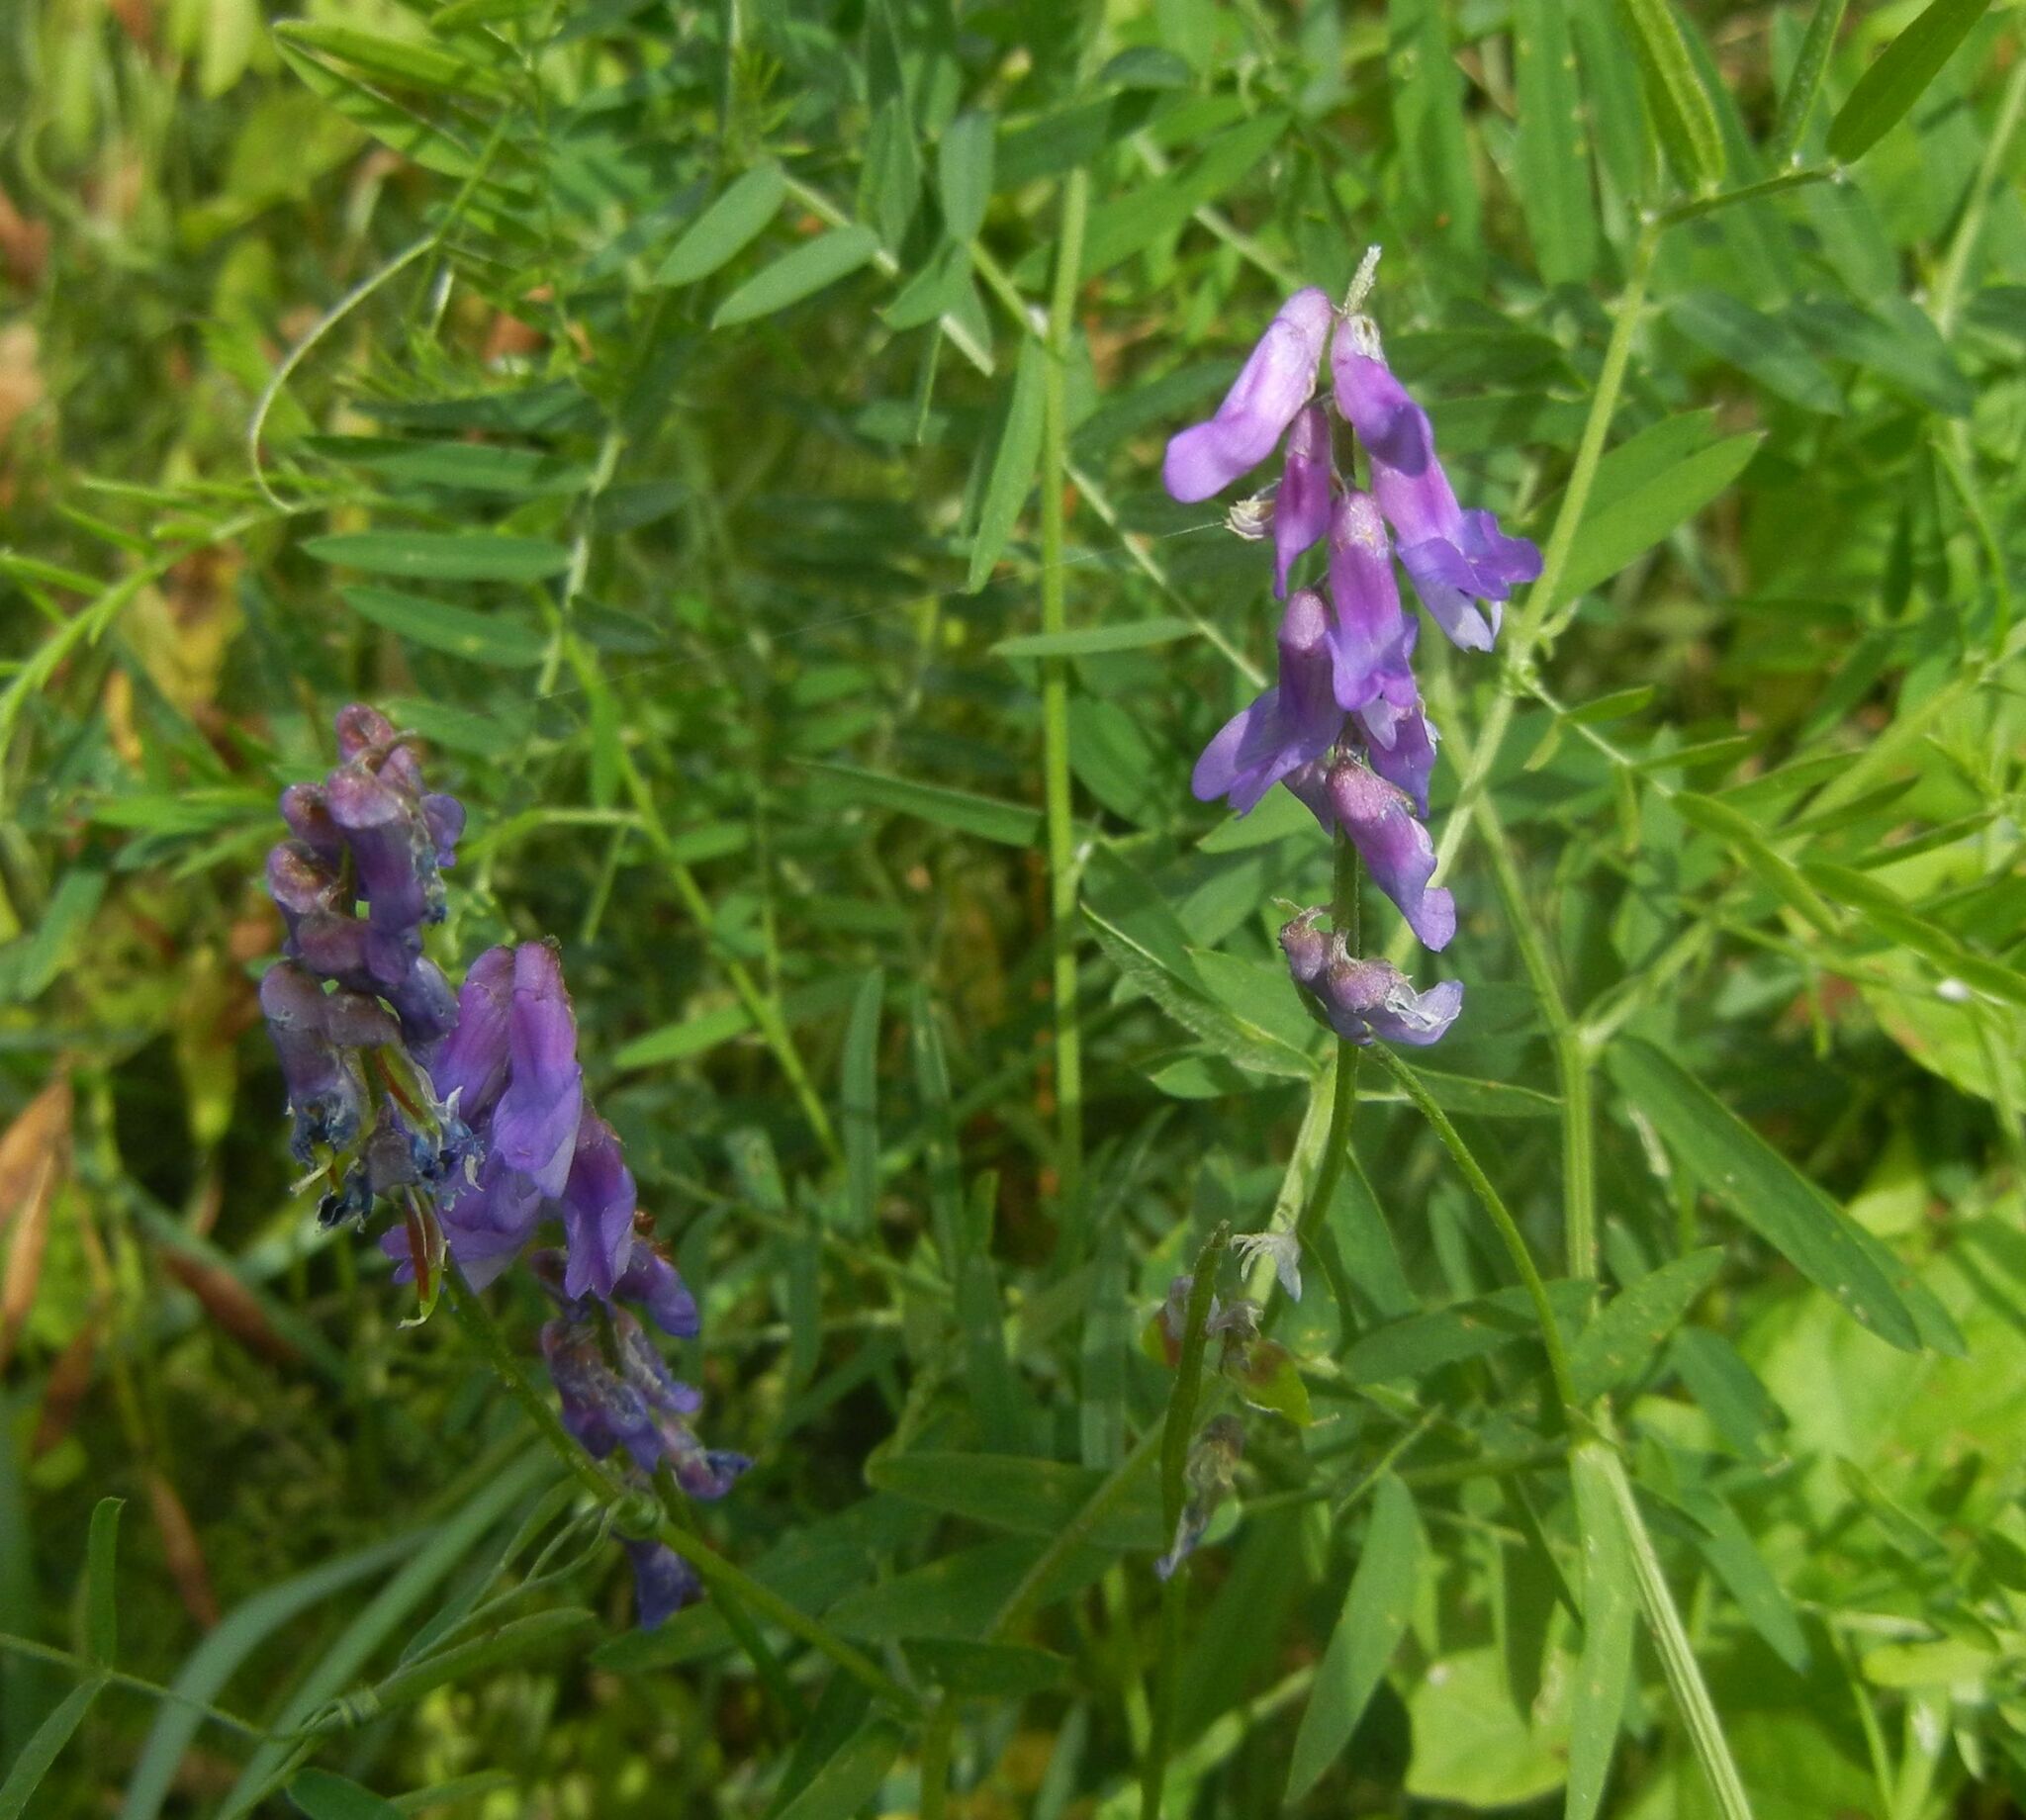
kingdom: Plantae
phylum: Tracheophyta
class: Magnoliopsida
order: Fabales
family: Fabaceae
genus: Vicia
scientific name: Vicia cracca
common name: Bird vetch
